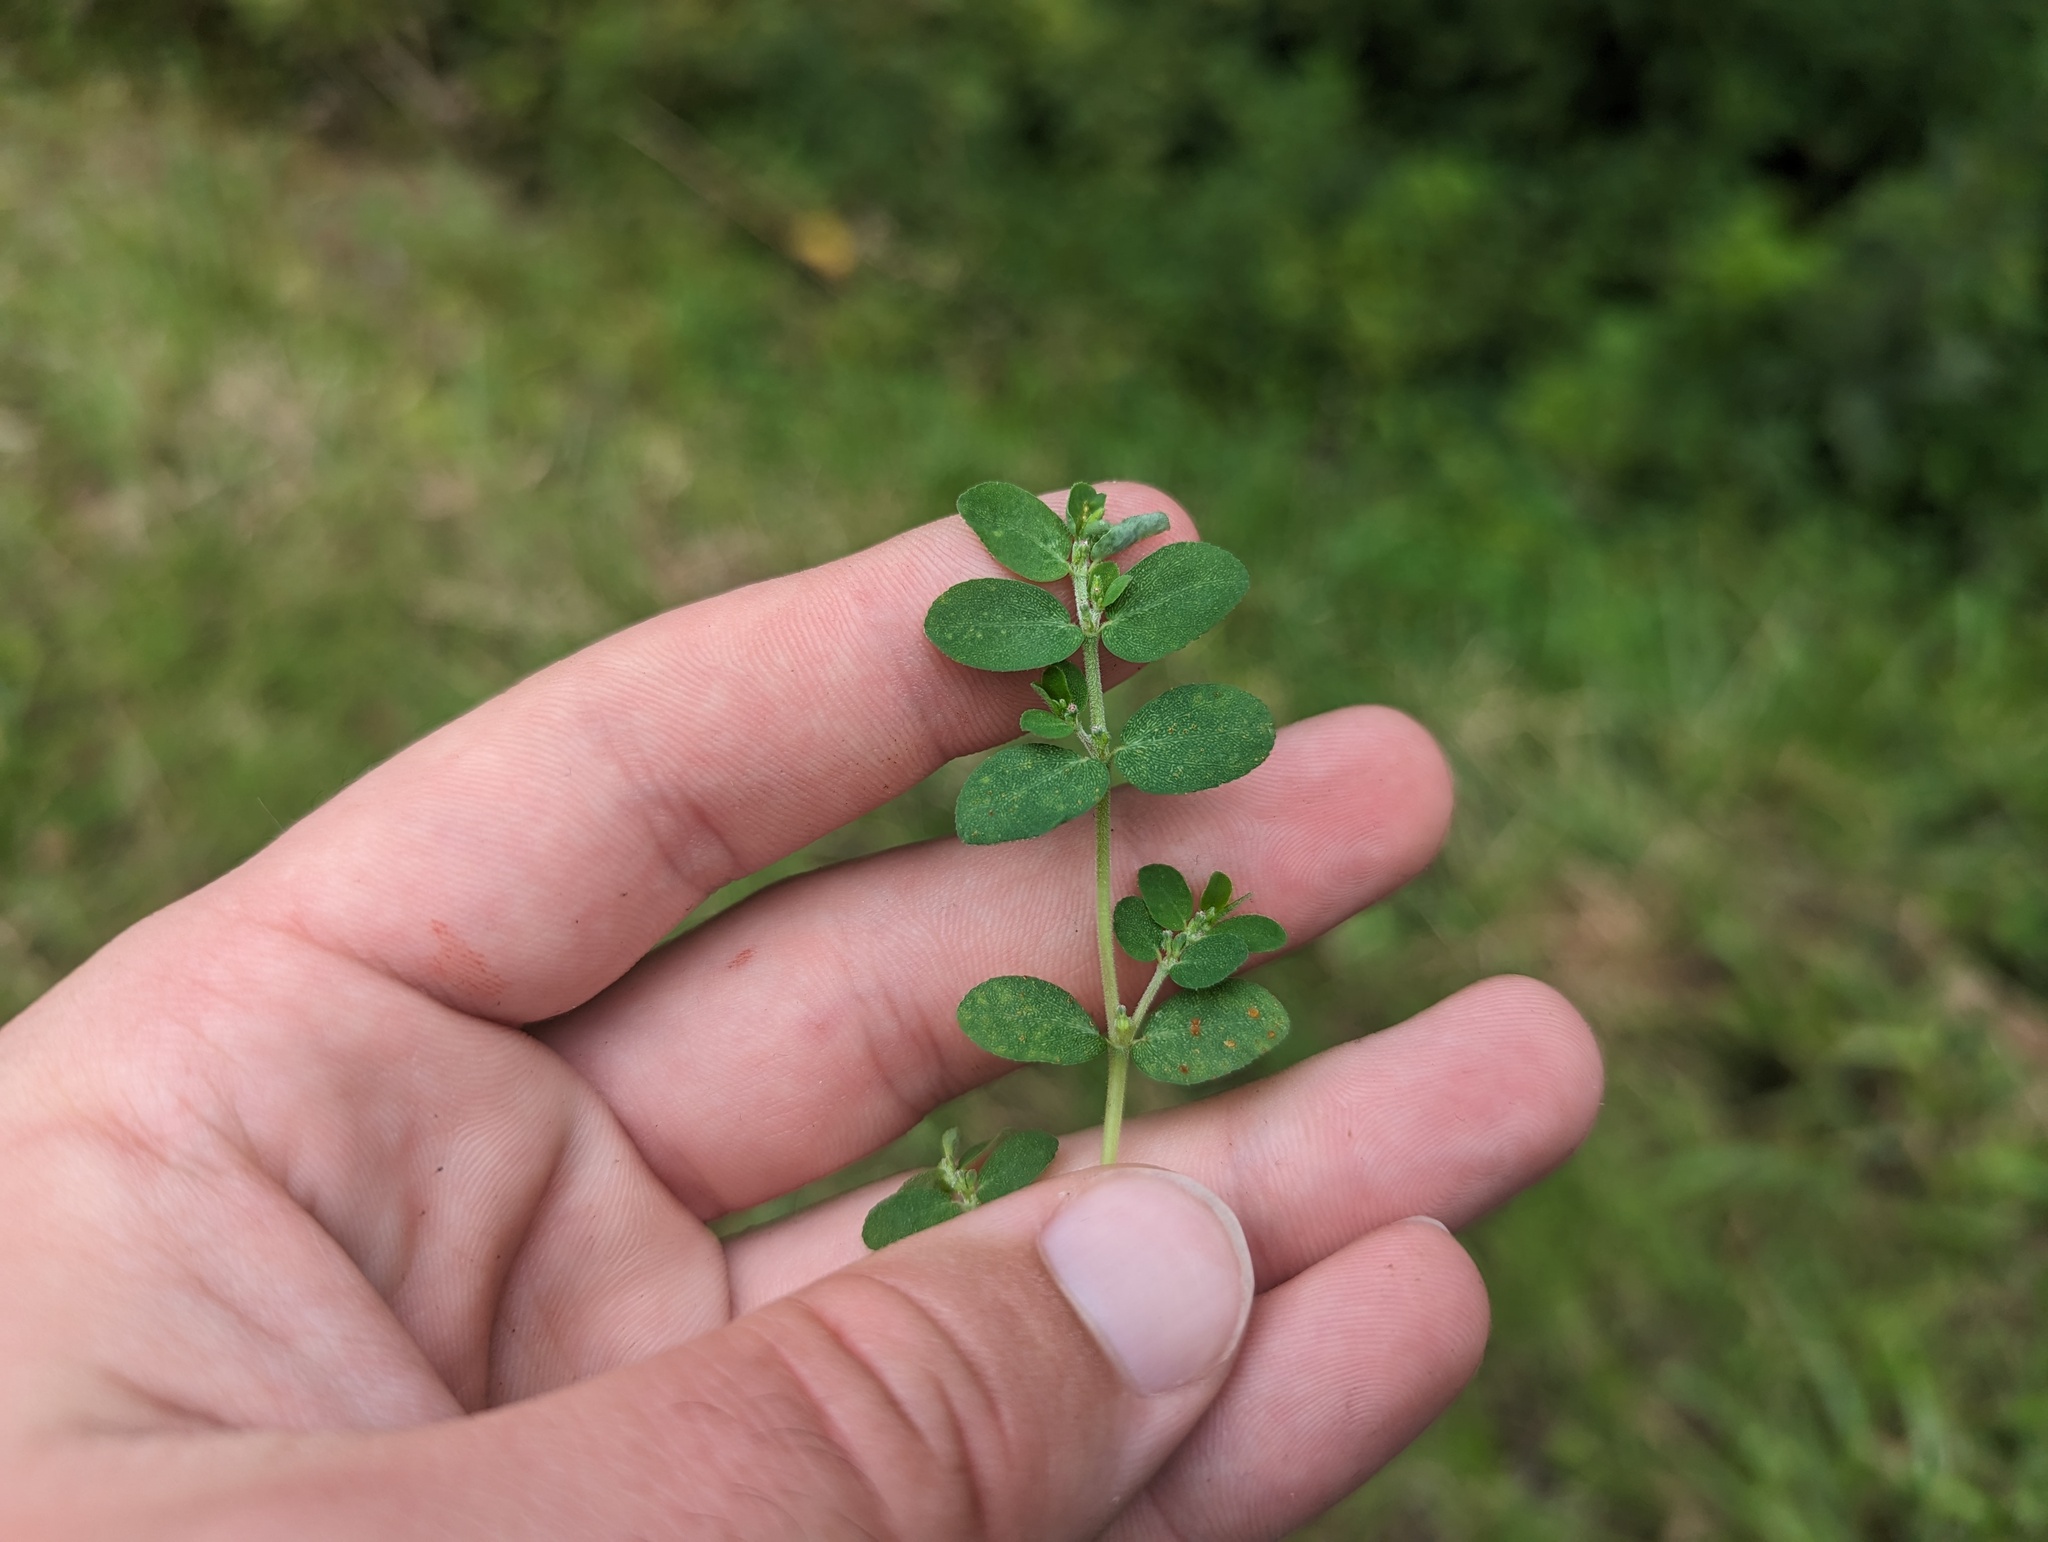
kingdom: Plantae
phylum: Tracheophyta
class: Magnoliopsida
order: Malpighiales
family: Euphorbiaceae
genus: Euphorbia
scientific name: Euphorbia prostrata
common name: Prostrate sandmat
